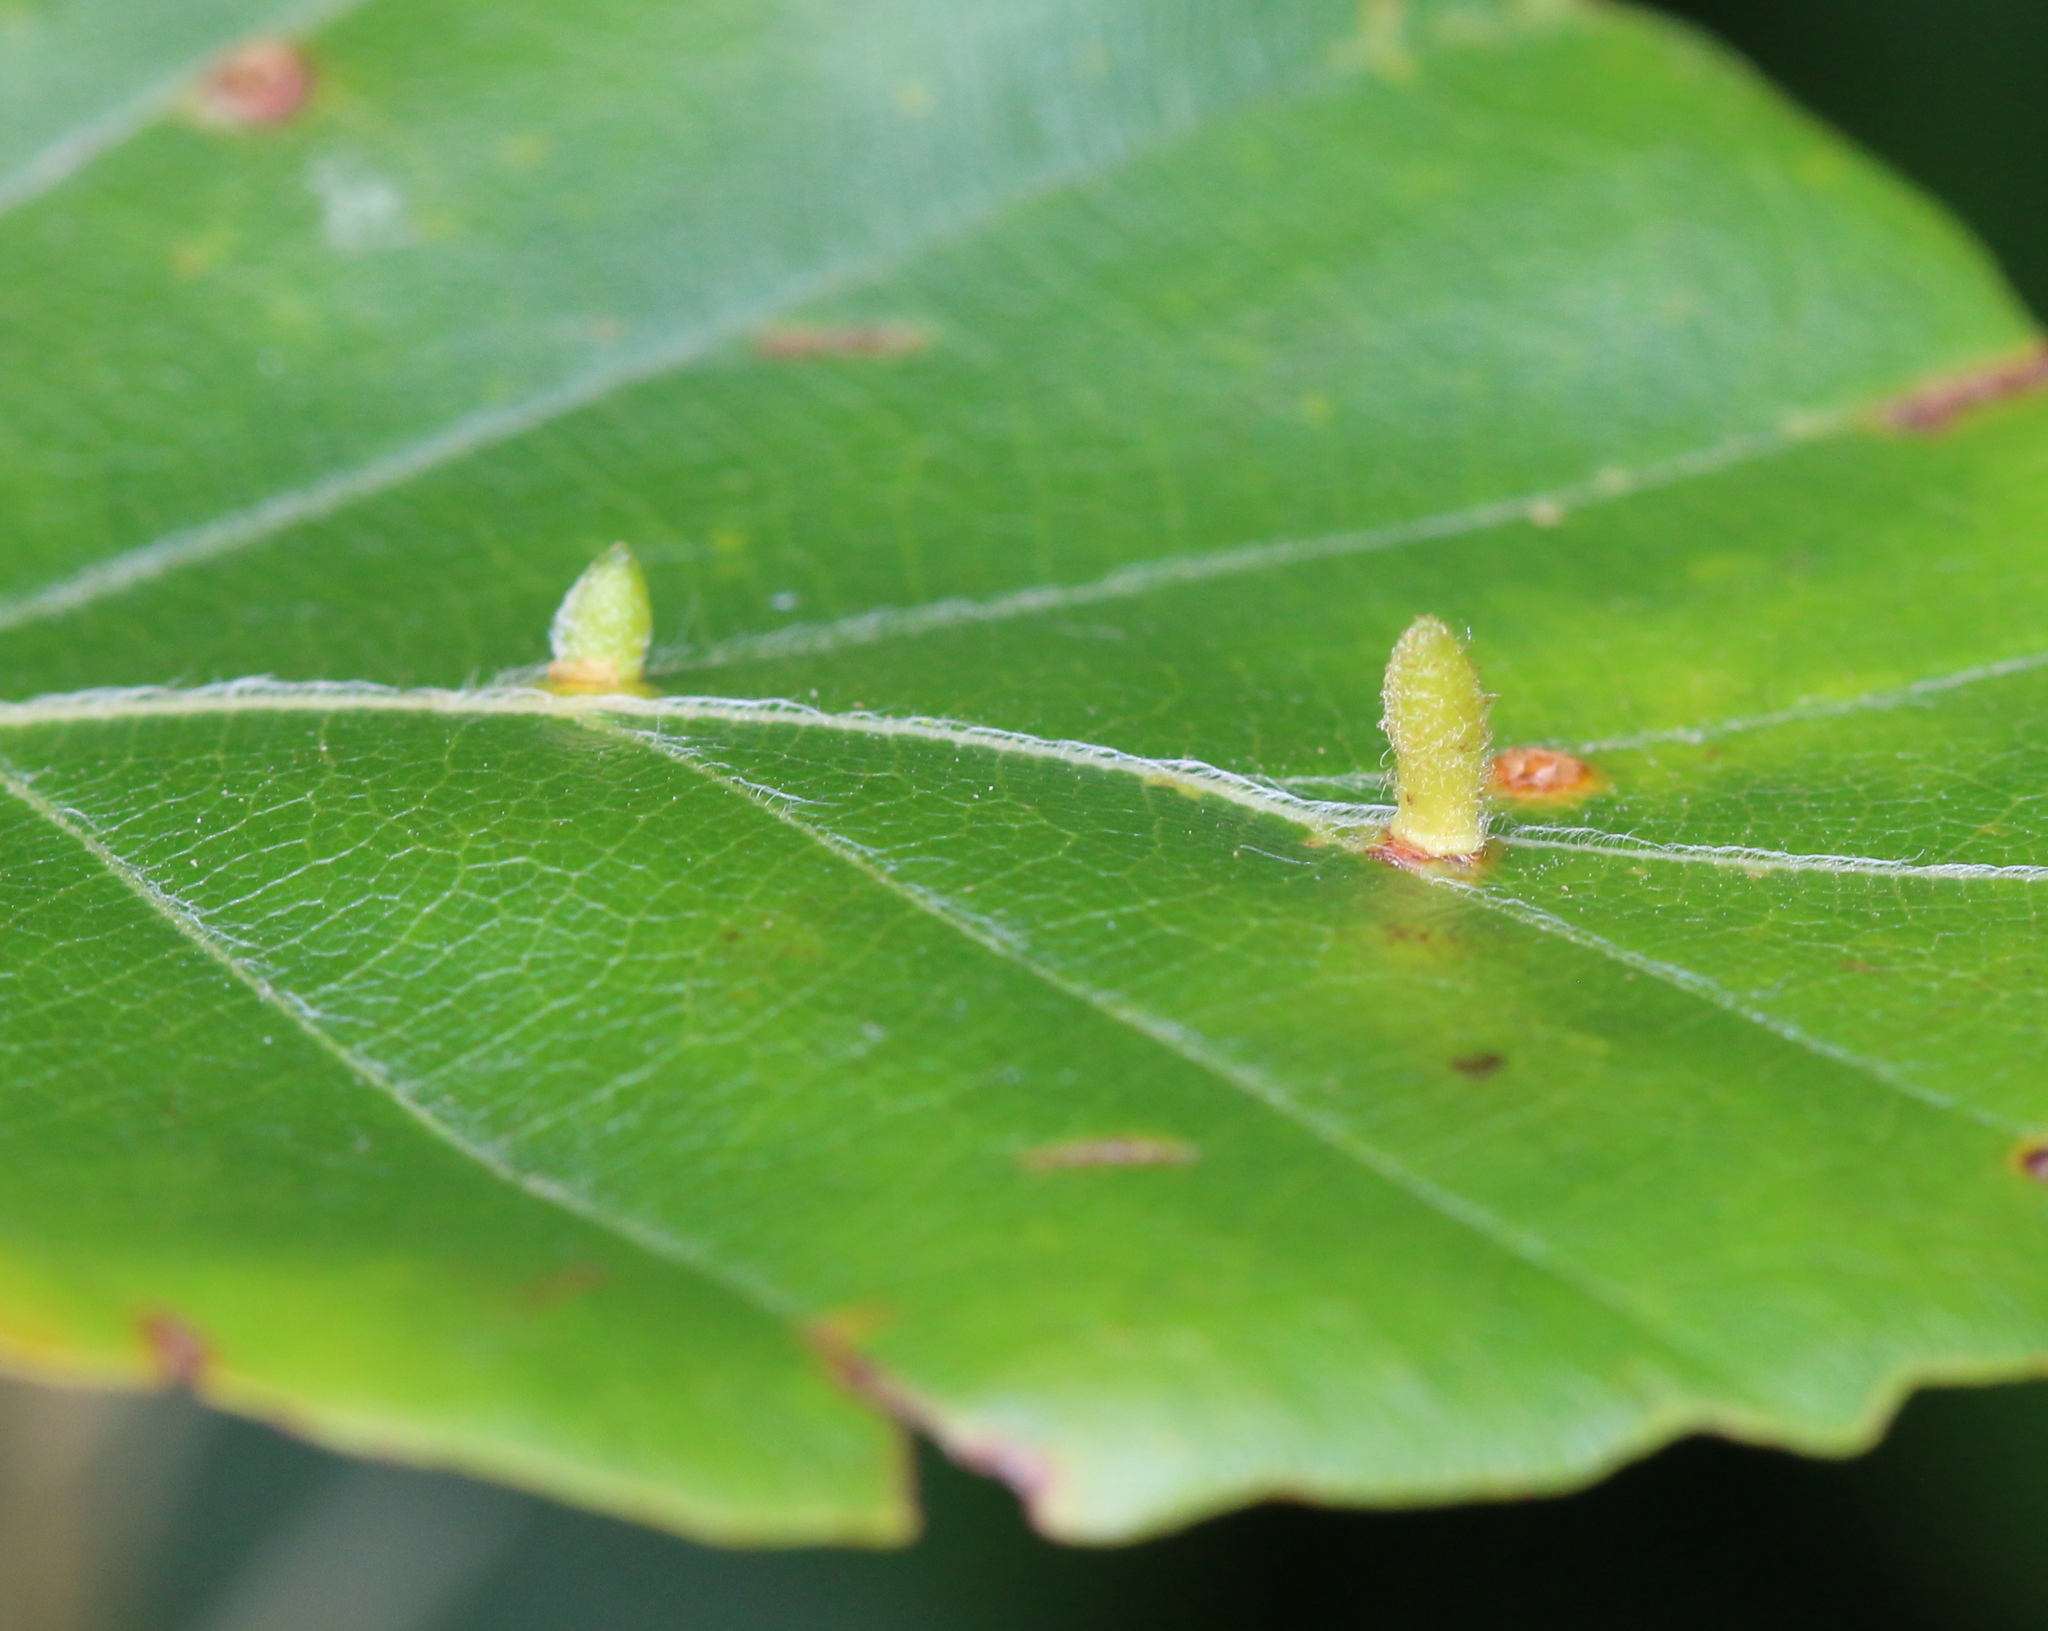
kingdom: Animalia
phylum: Arthropoda
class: Insecta
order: Diptera
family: Cecidomyiidae
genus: Hartigiola
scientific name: Hartigiola annulipes
